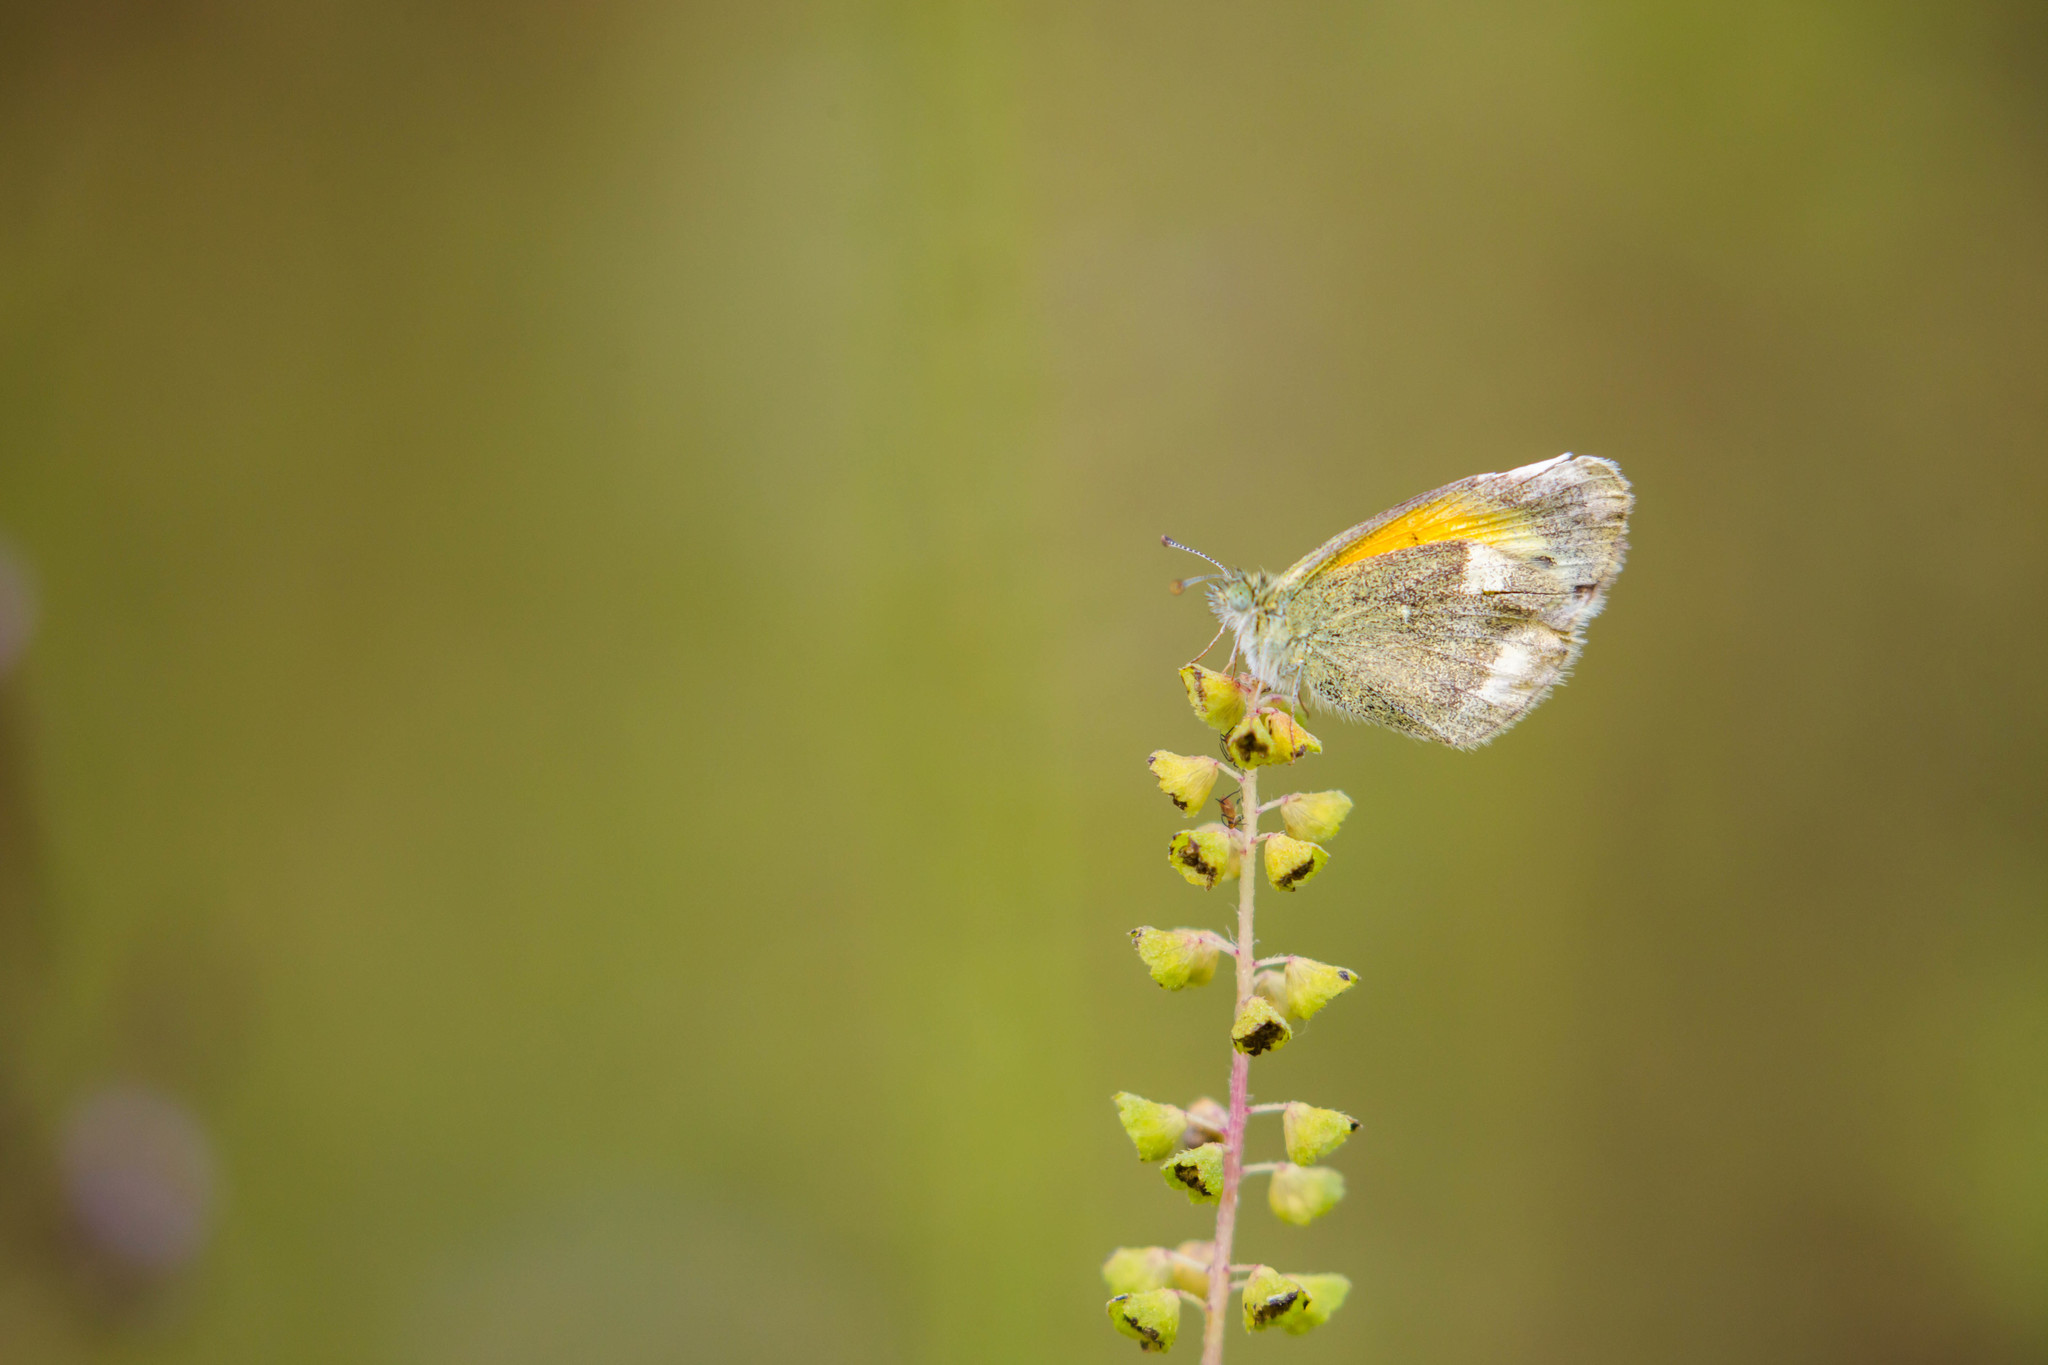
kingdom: Animalia
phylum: Arthropoda
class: Insecta
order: Lepidoptera
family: Pieridae
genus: Nathalis
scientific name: Nathalis iole
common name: Dainty sulphur
